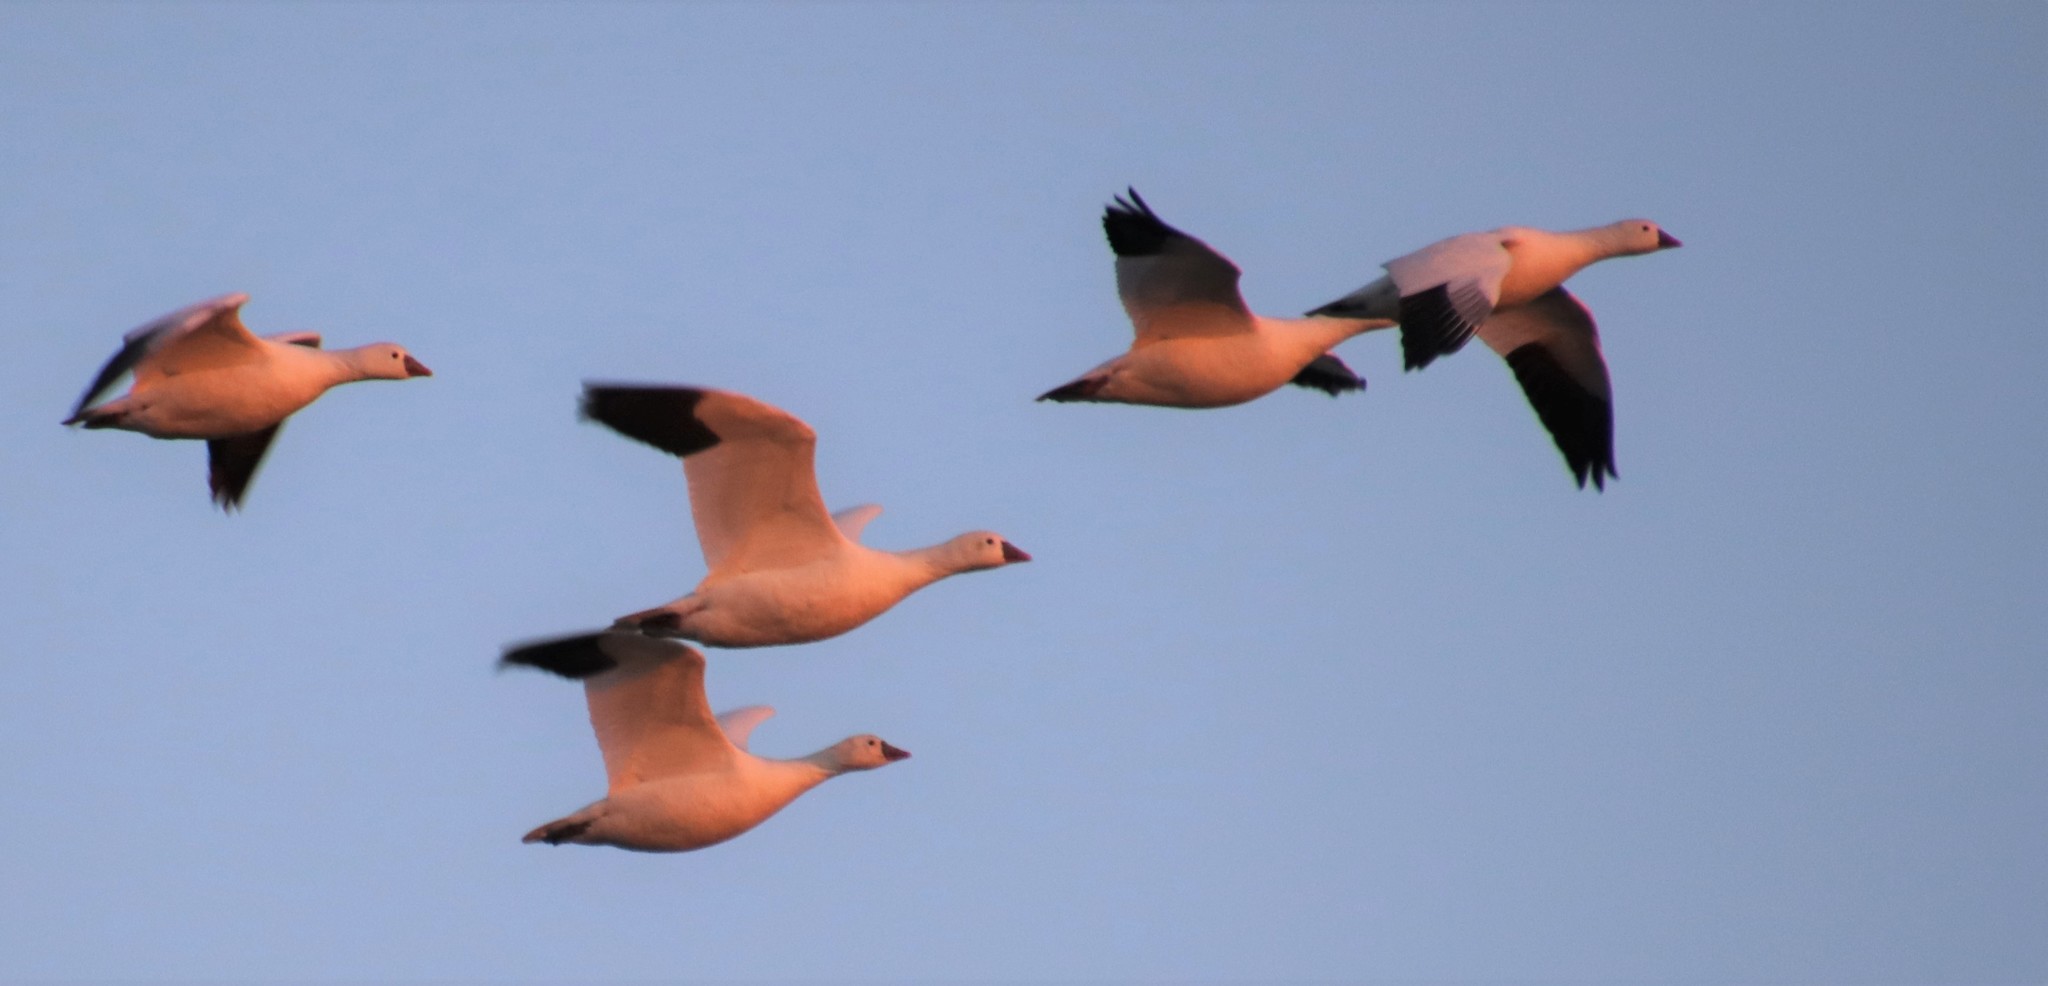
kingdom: Animalia
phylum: Chordata
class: Aves
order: Anseriformes
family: Anatidae
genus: Anser
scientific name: Anser rossii
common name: Ross's goose
